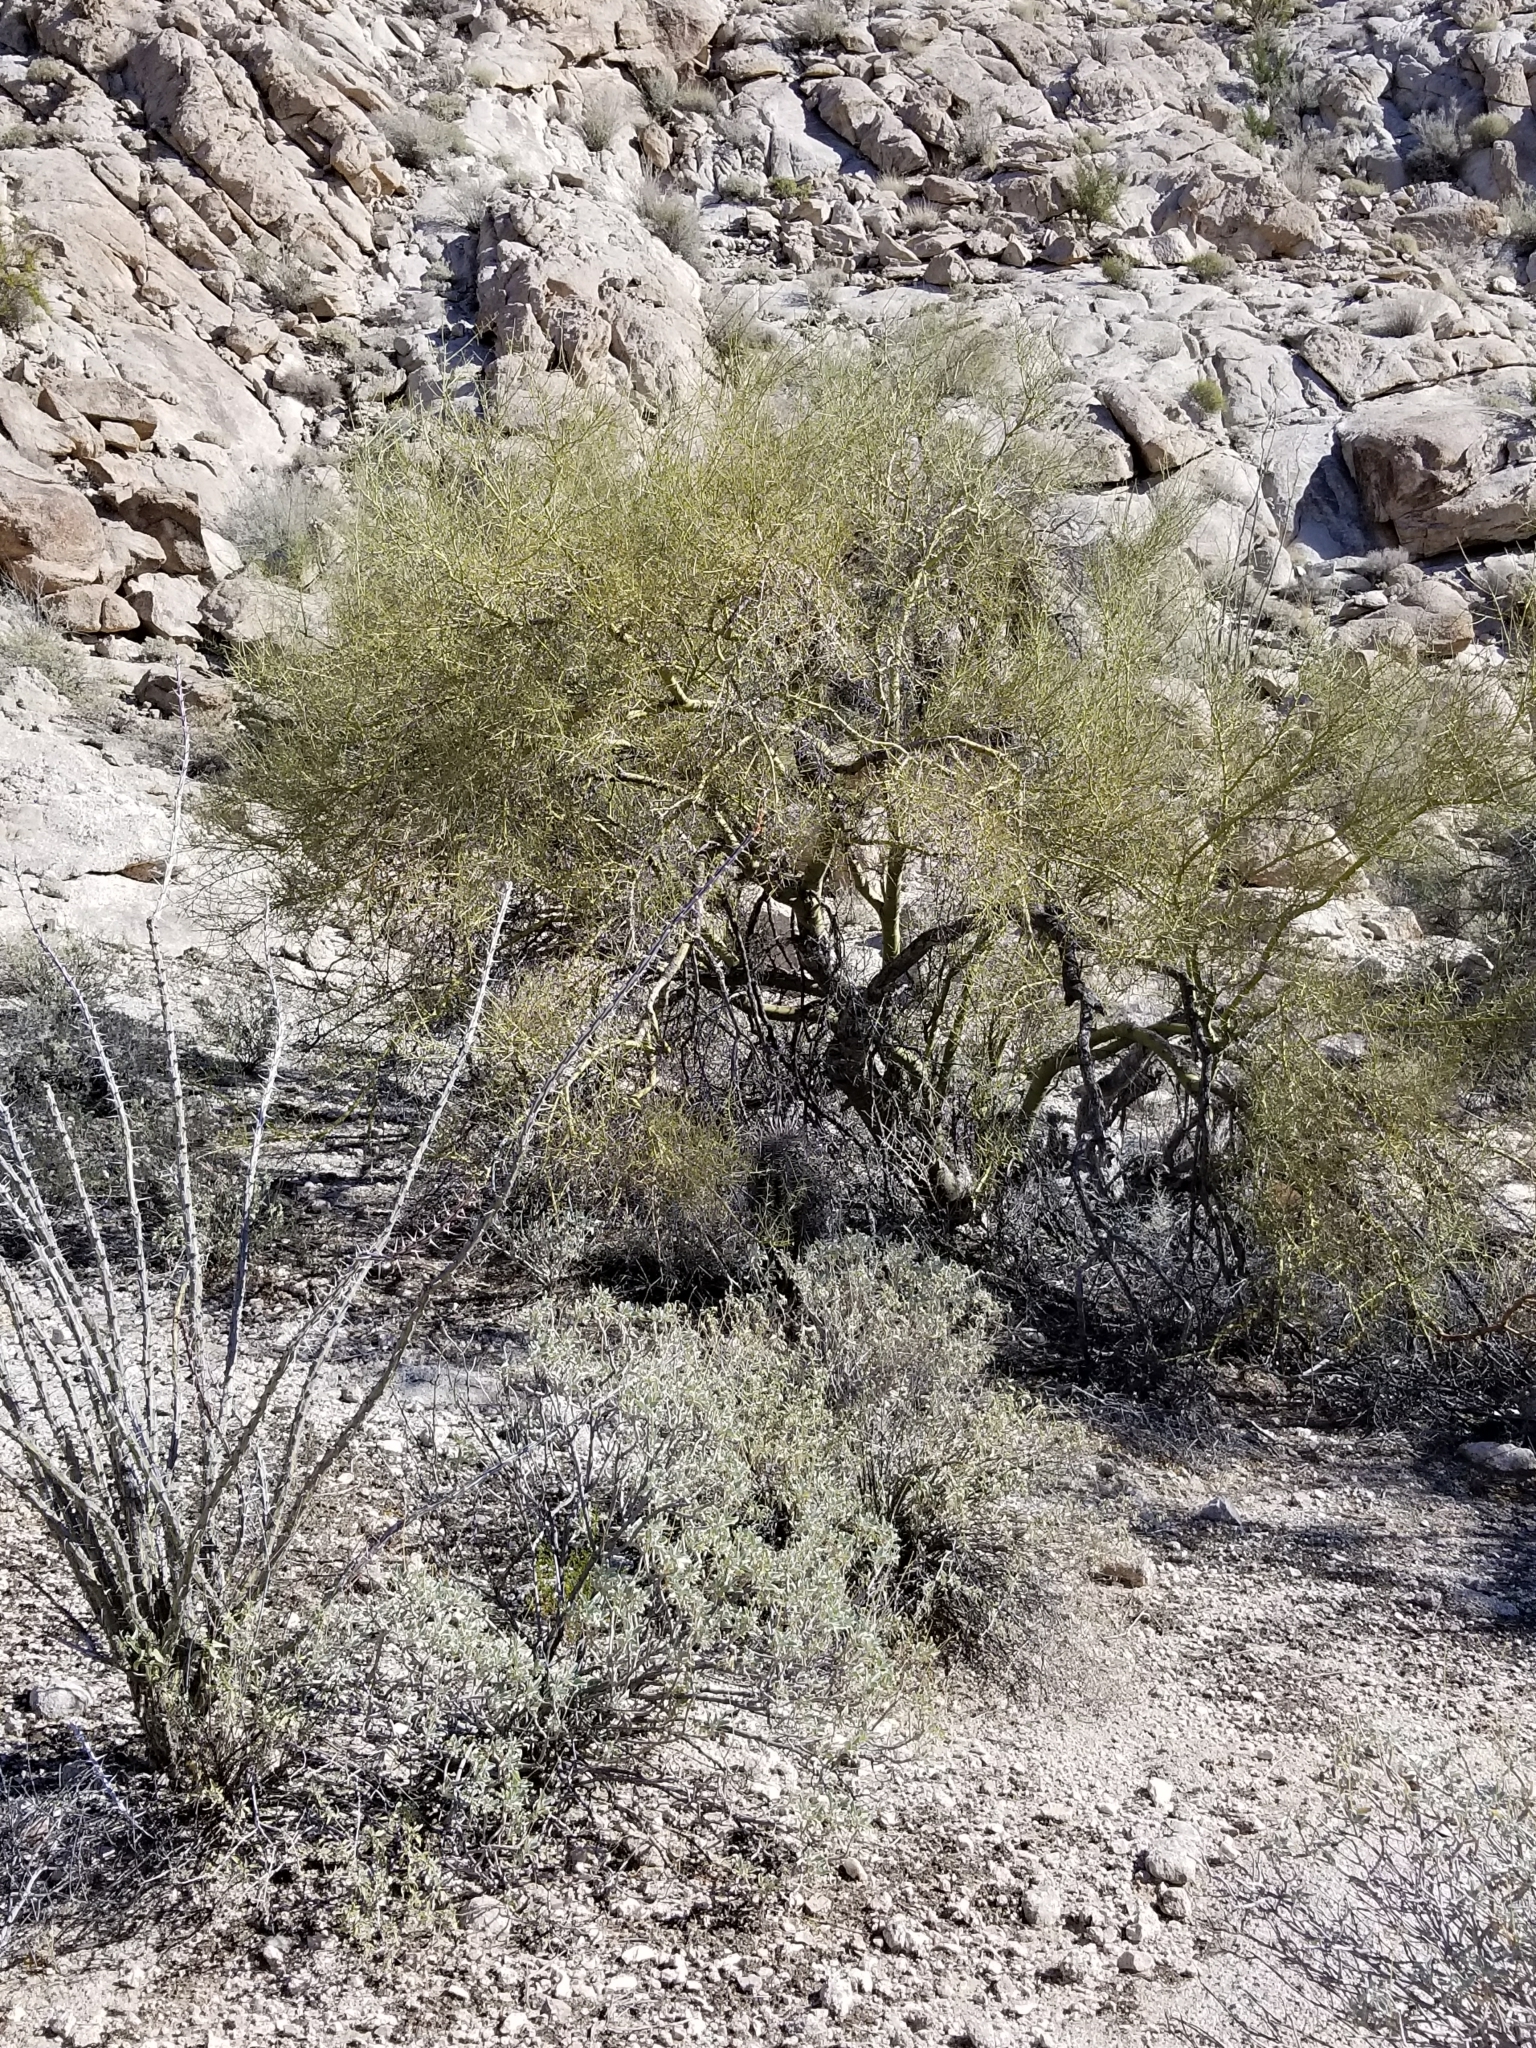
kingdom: Plantae
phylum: Tracheophyta
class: Magnoliopsida
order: Fabales
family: Fabaceae
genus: Parkinsonia
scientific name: Parkinsonia microphylla
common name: Yellow paloverde
